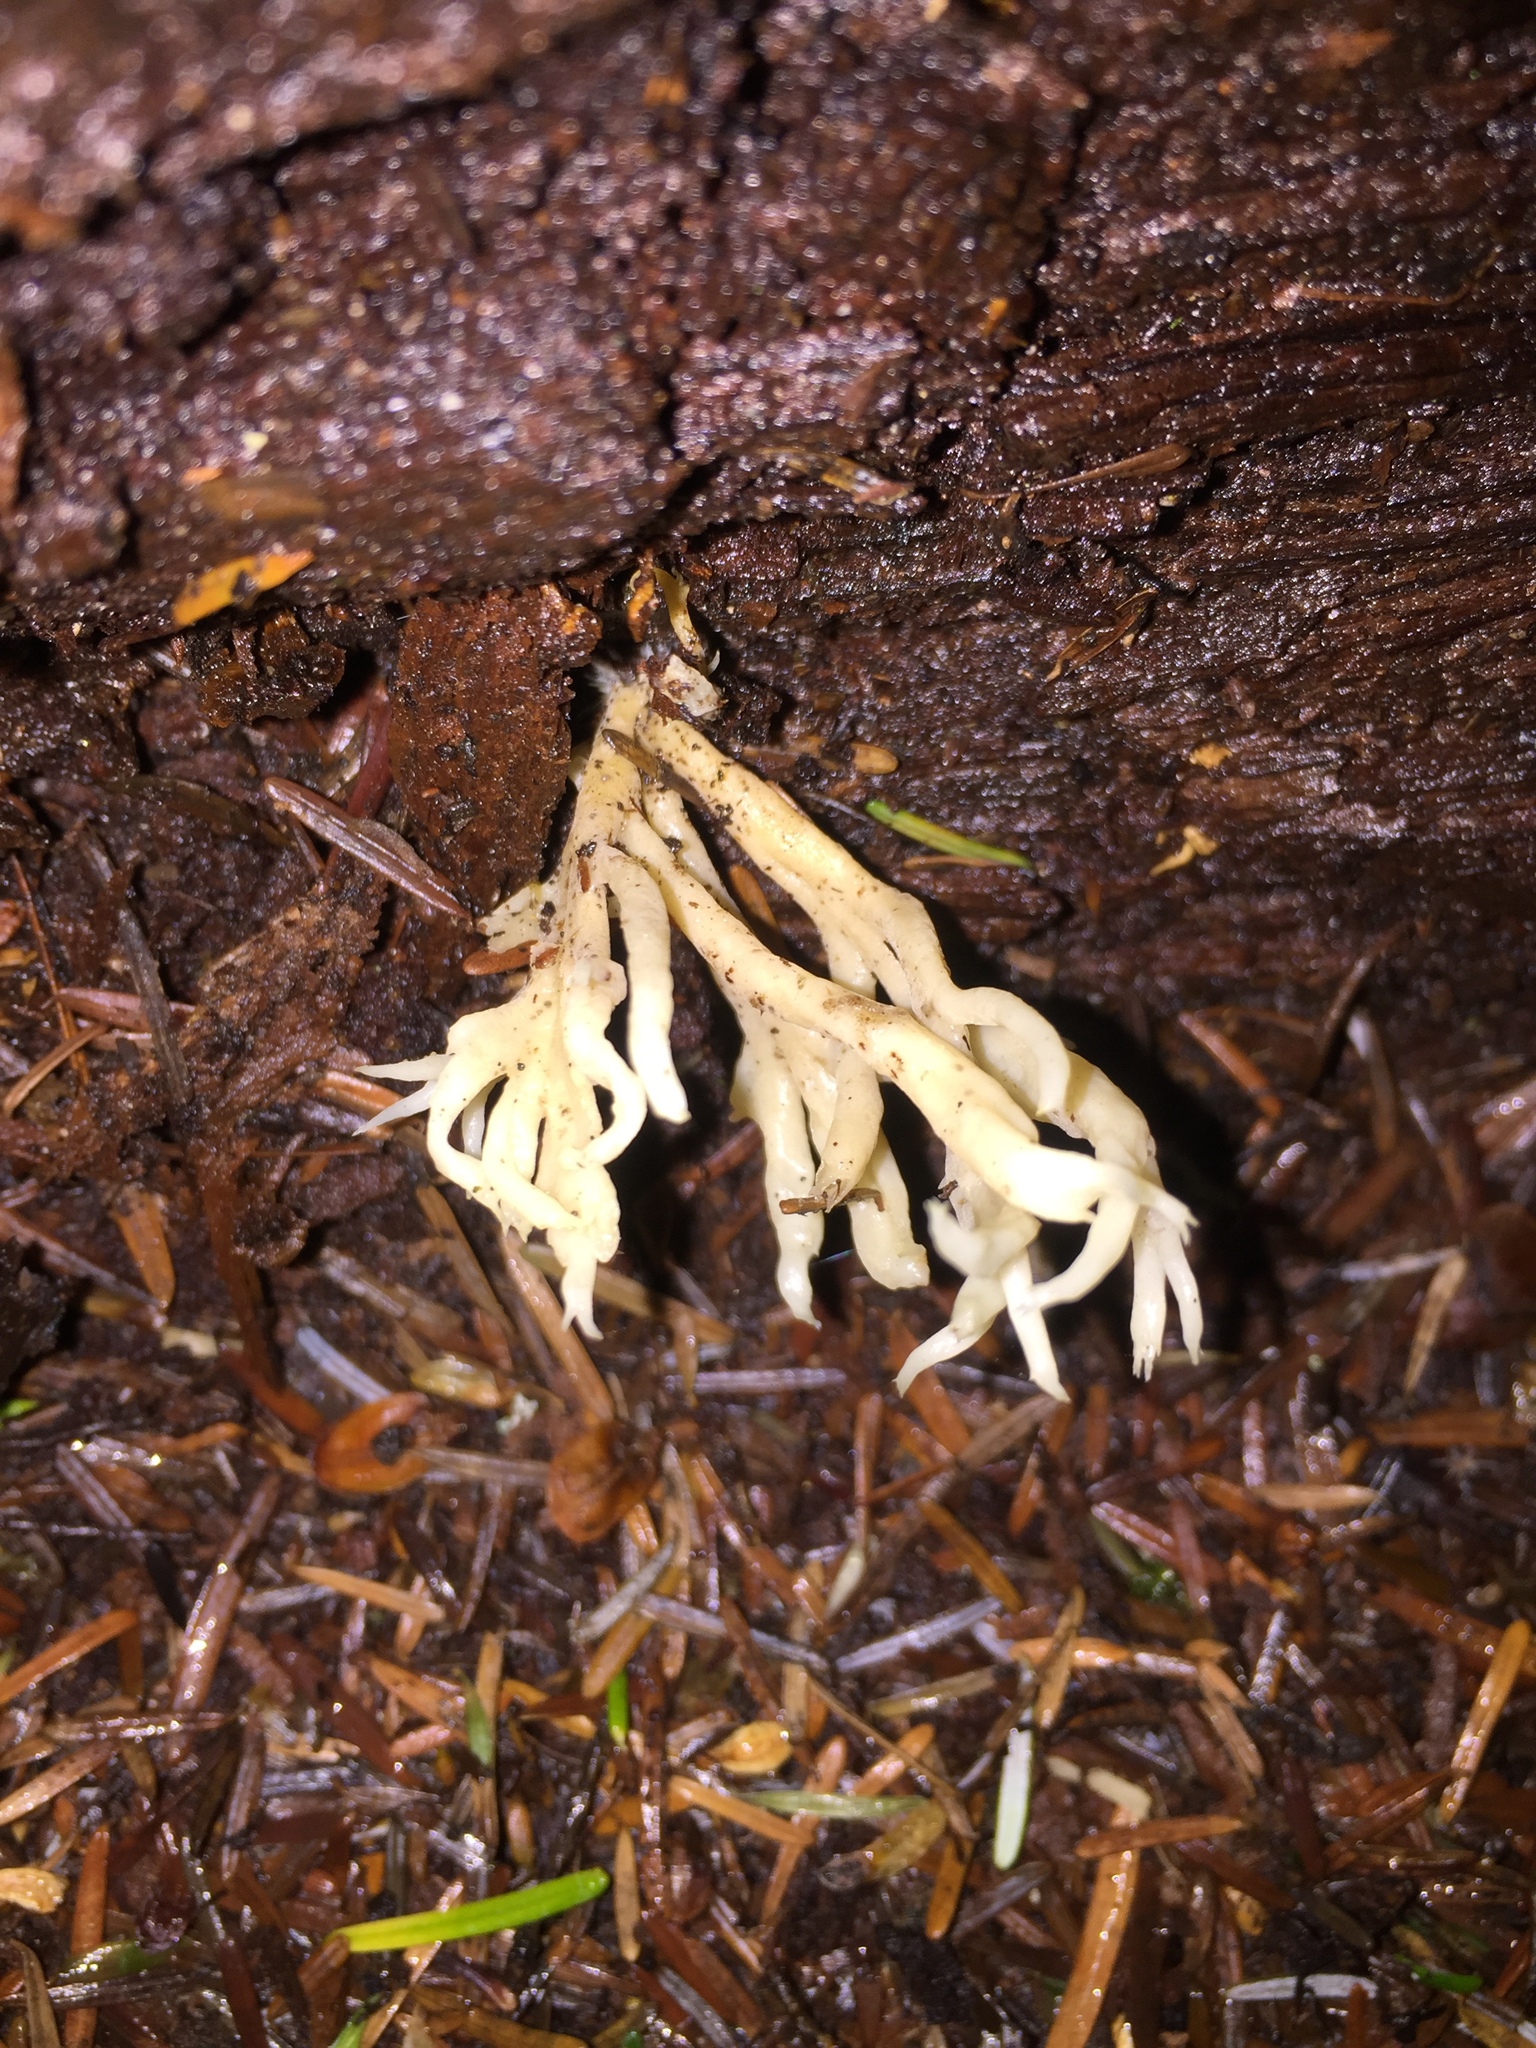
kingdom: Fungi
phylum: Basidiomycota
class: Agaricomycetes
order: Cantharellales
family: Hydnaceae
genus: Clavulina
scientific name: Clavulina coralloides
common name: Crested coral
